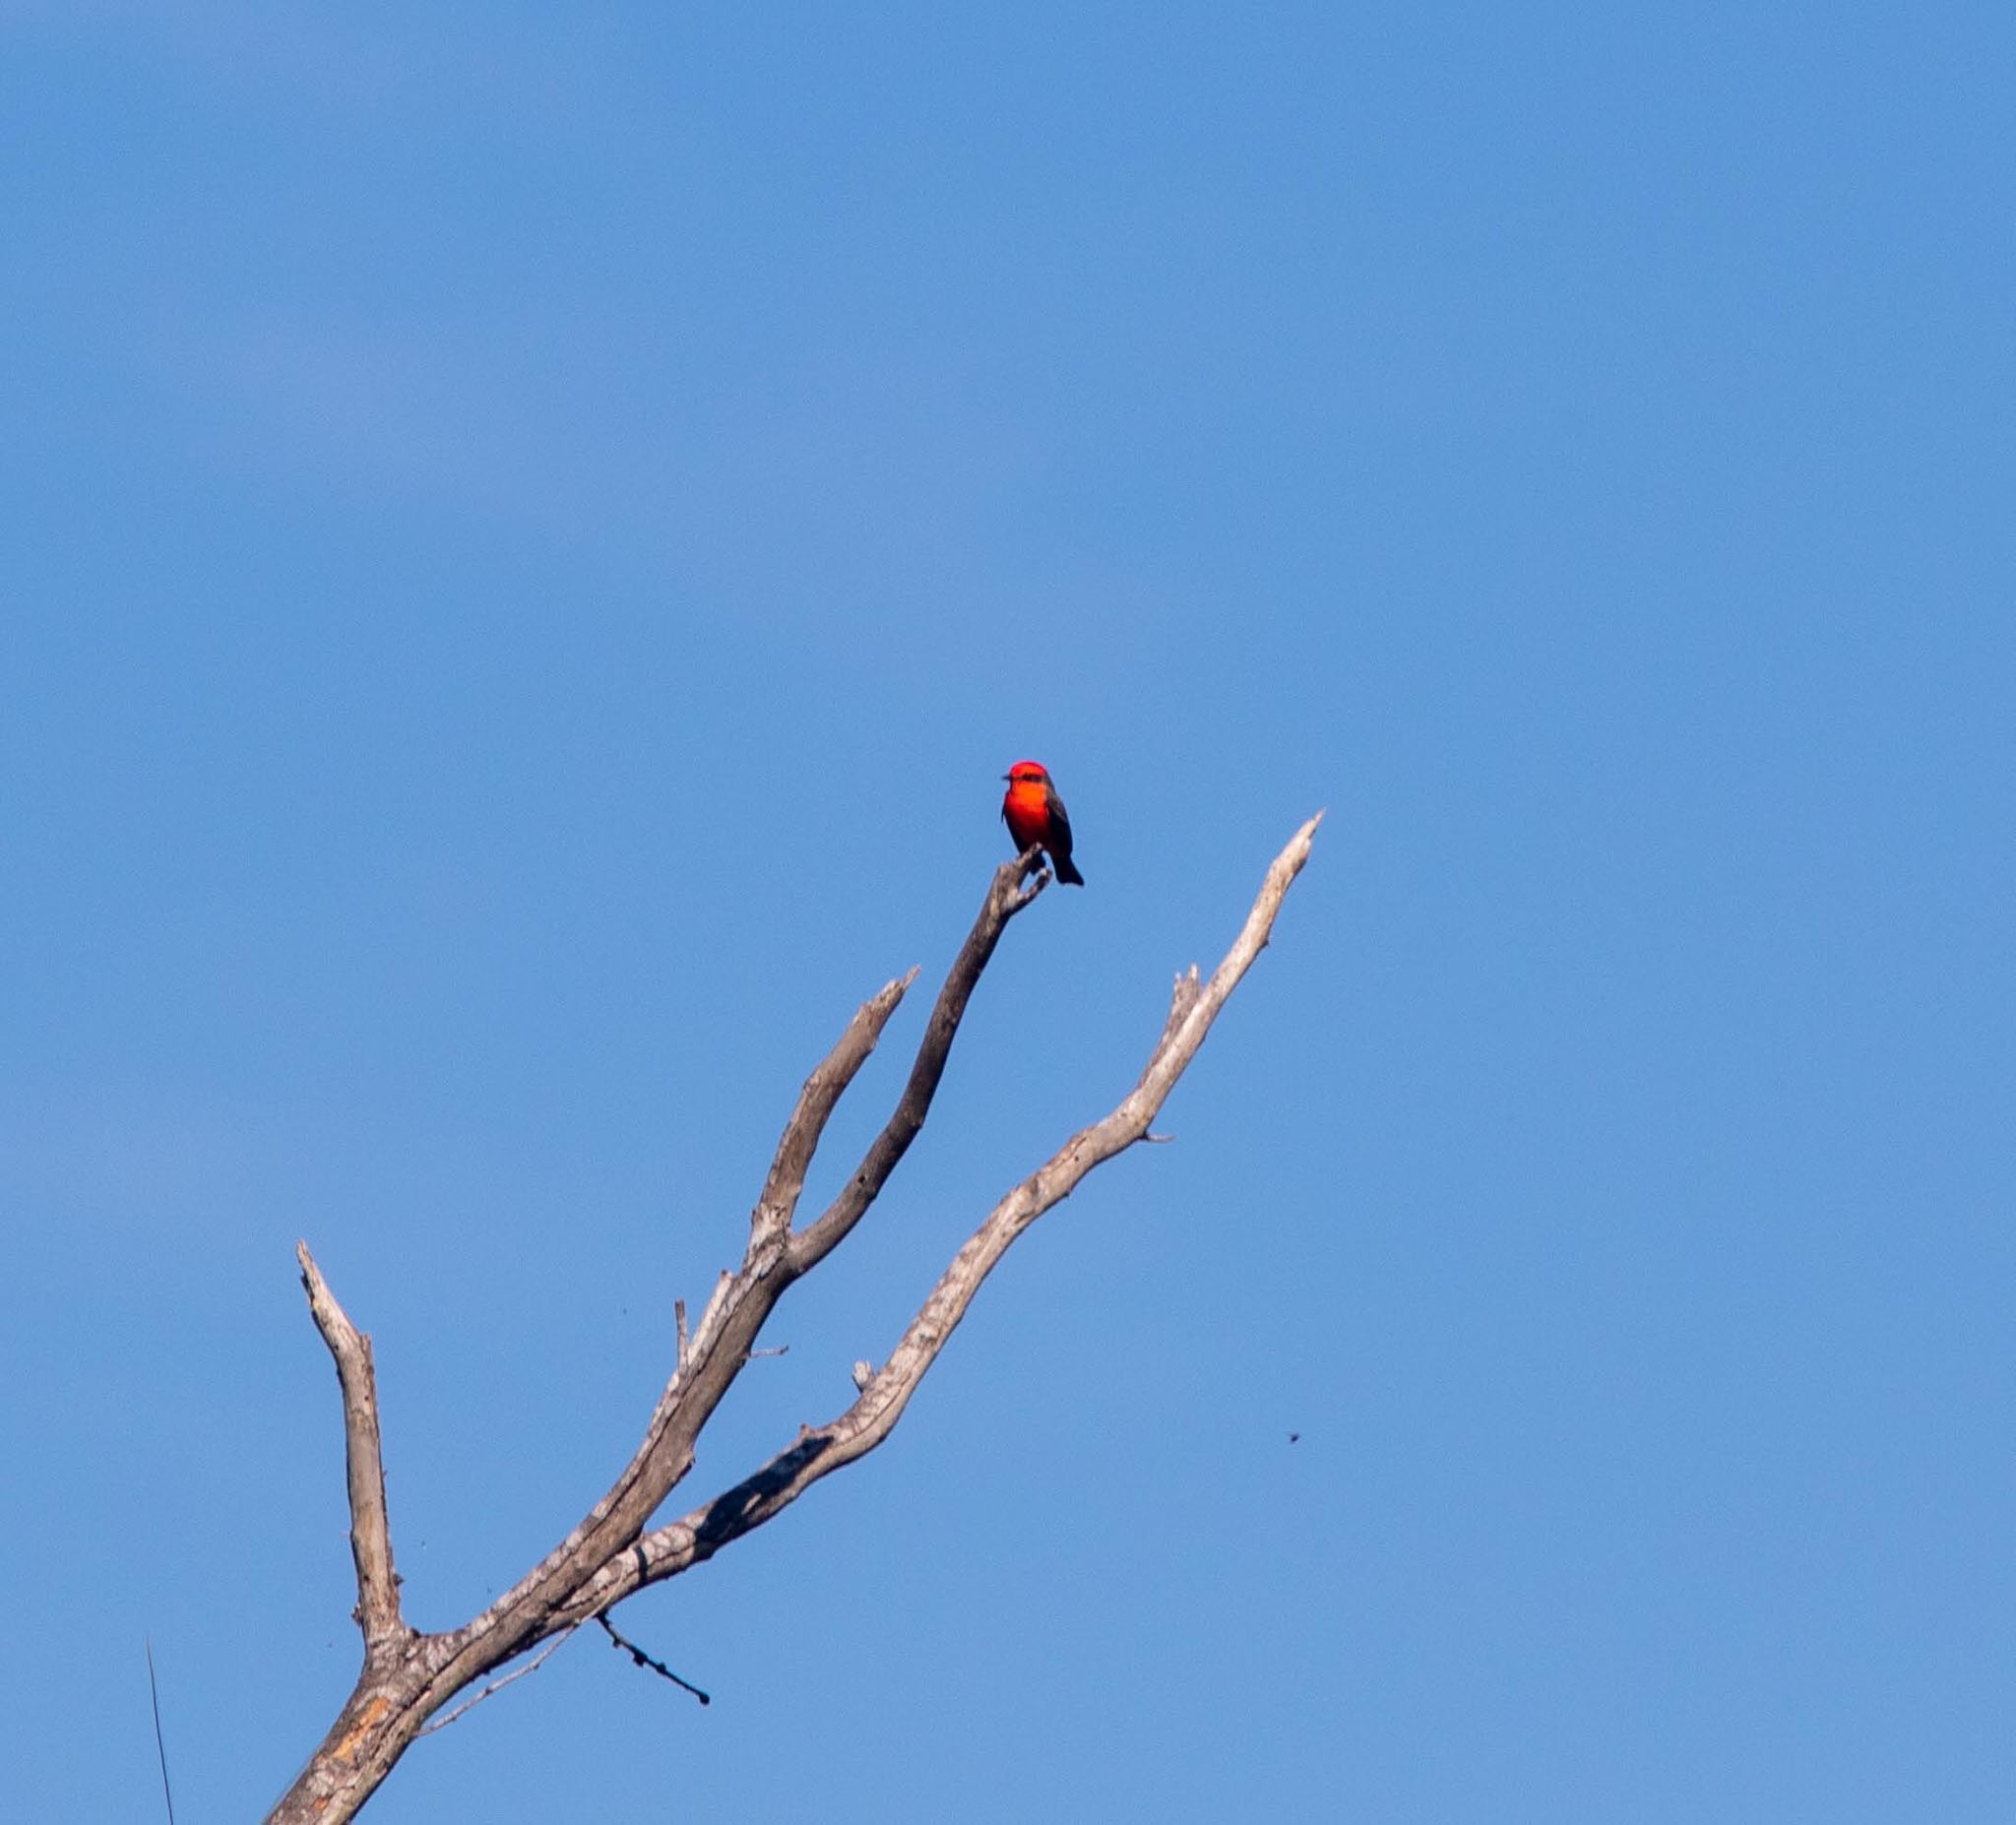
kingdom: Animalia
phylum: Chordata
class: Aves
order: Passeriformes
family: Tyrannidae
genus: Pyrocephalus
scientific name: Pyrocephalus rubinus
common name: Vermilion flycatcher
